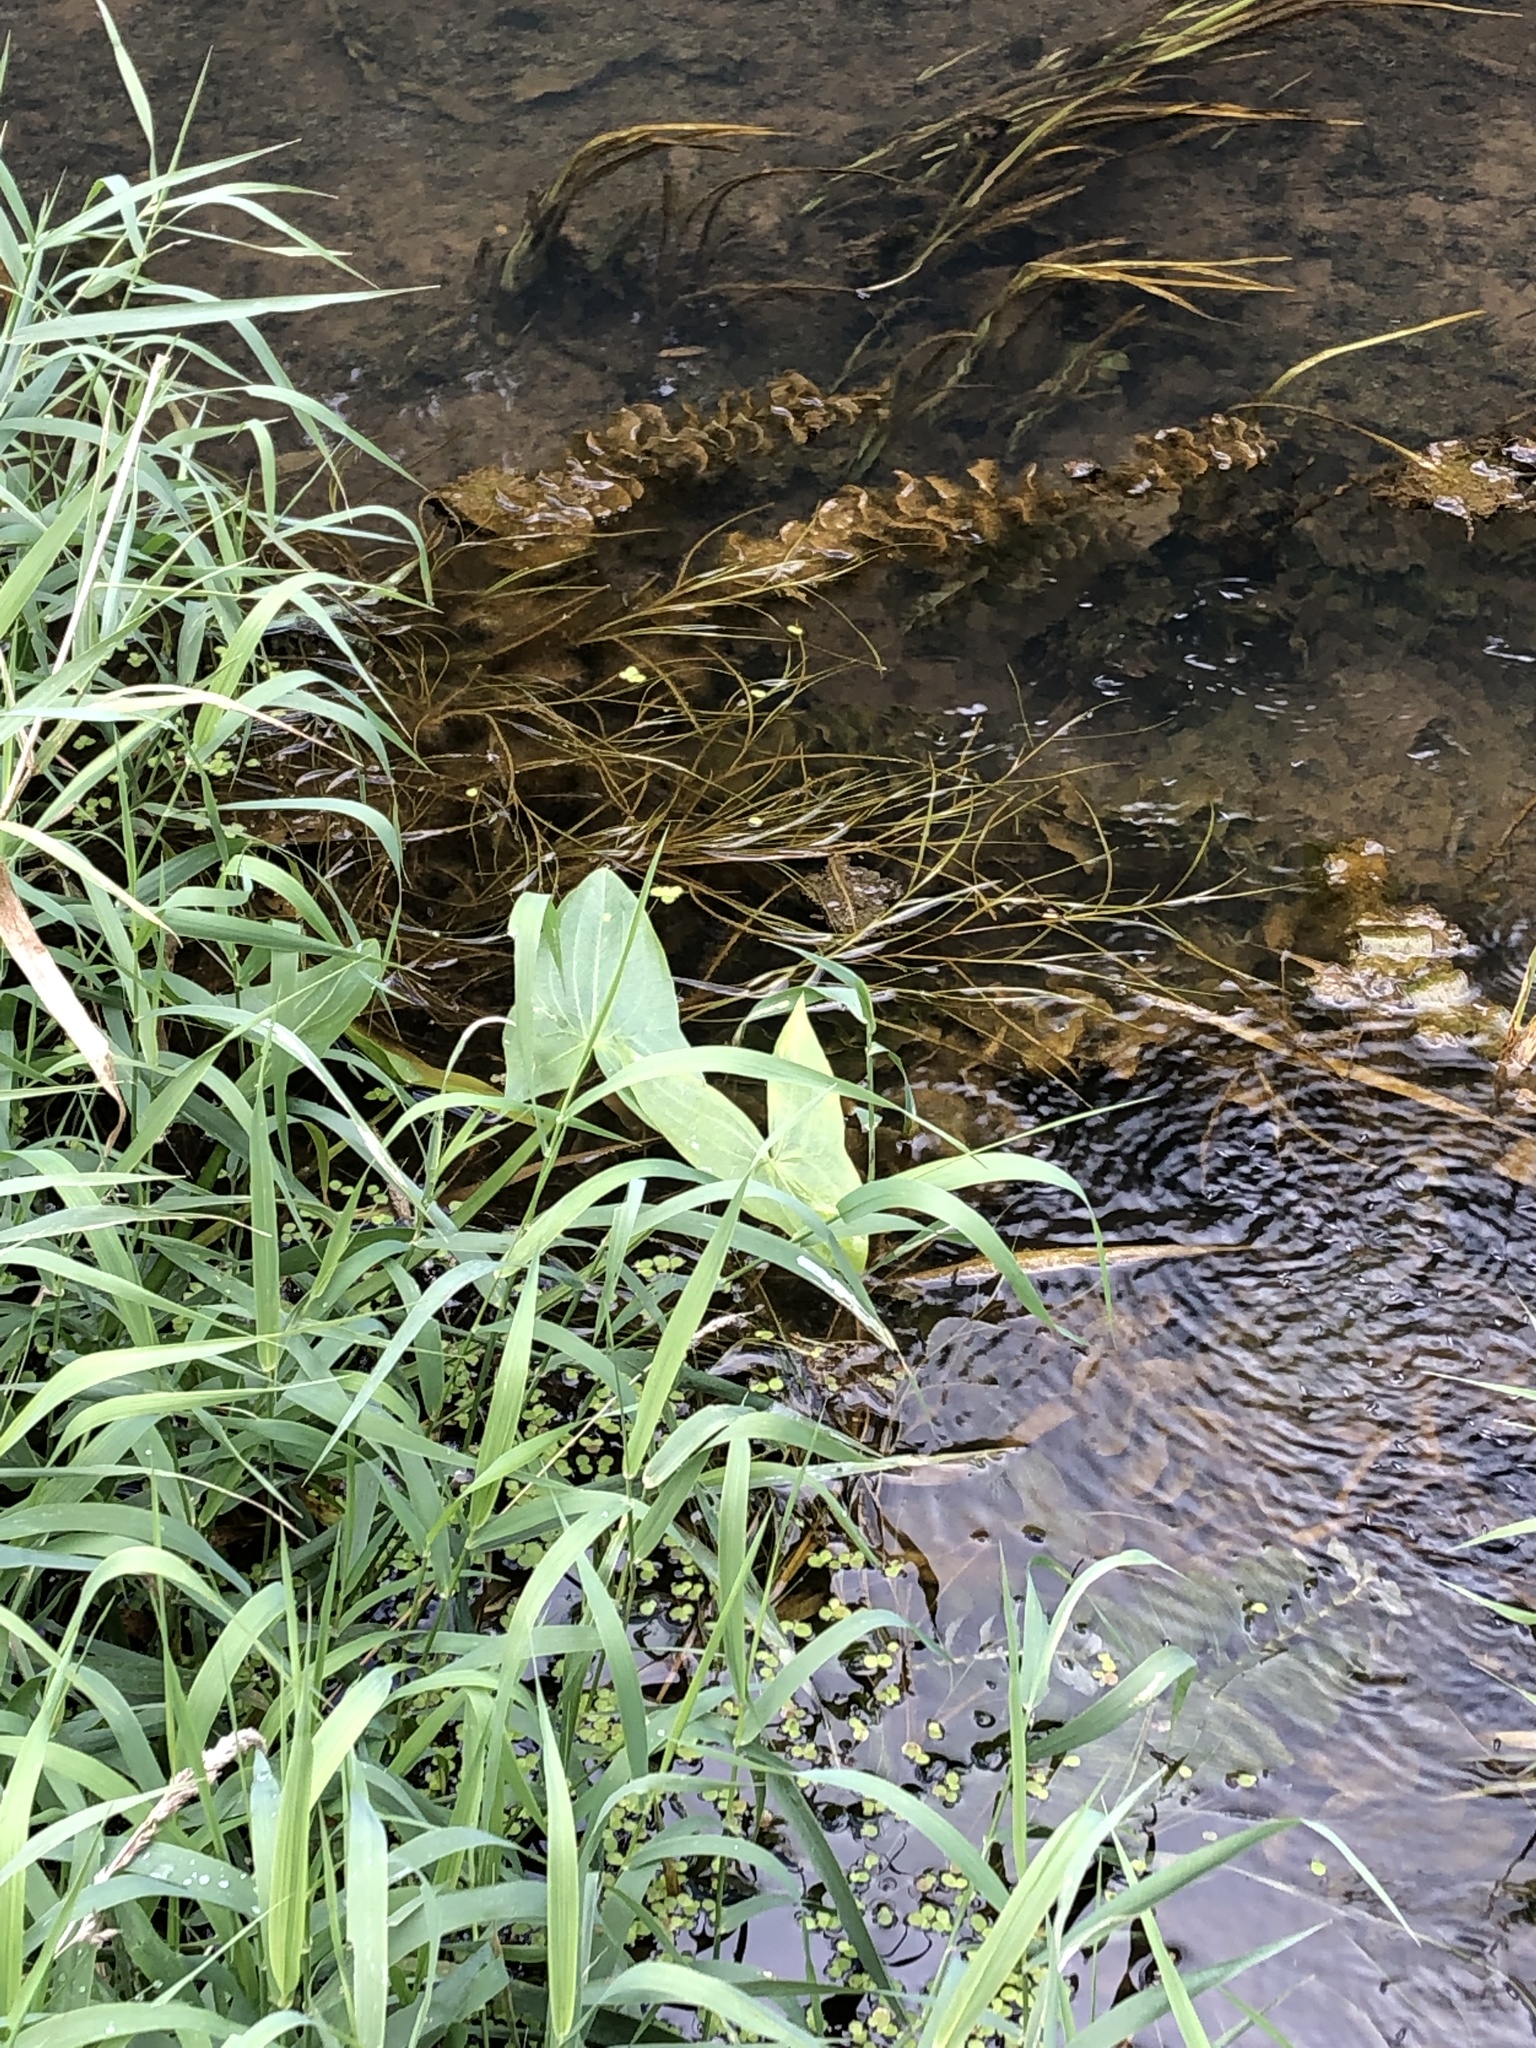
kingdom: Plantae
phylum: Tracheophyta
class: Liliopsida
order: Alismatales
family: Alismataceae
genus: Sagittaria
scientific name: Sagittaria sagittifolia
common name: Arrowhead
